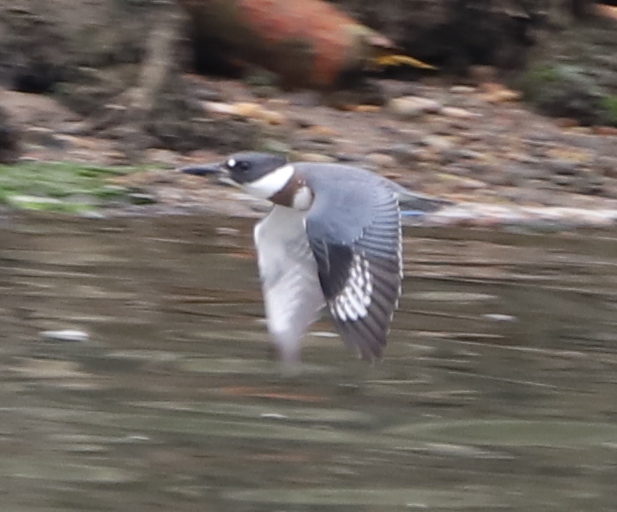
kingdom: Animalia
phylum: Chordata
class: Aves
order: Coraciiformes
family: Alcedinidae
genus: Megaceryle
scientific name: Megaceryle alcyon
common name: Belted kingfisher
